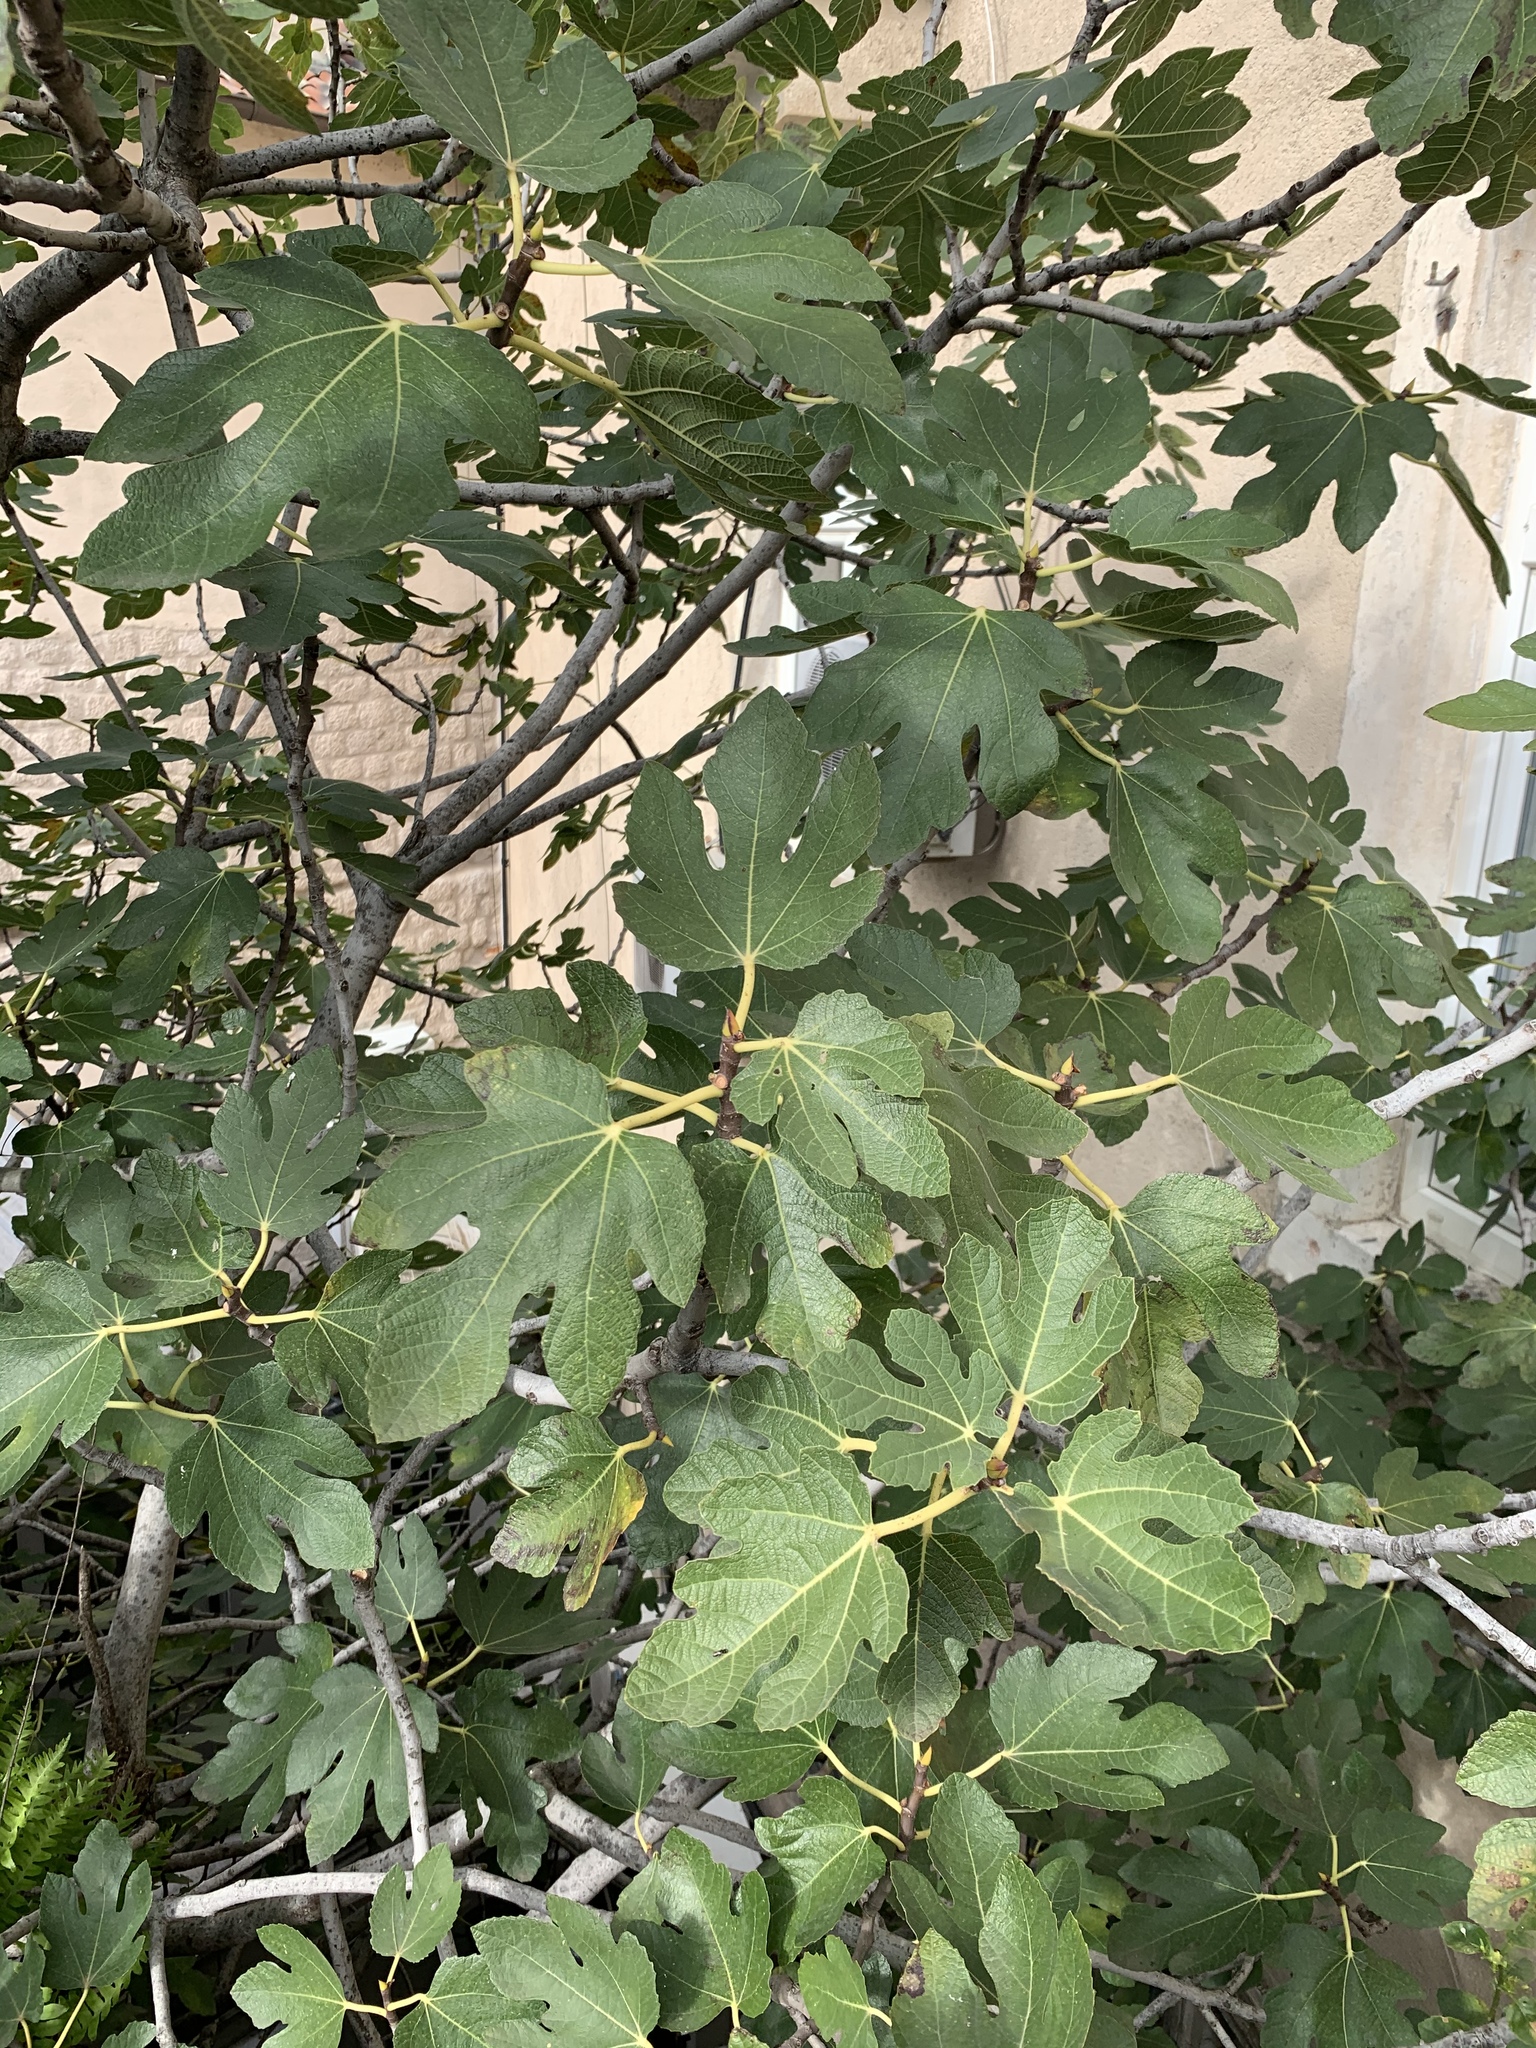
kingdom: Plantae
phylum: Tracheophyta
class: Magnoliopsida
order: Rosales
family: Moraceae
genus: Ficus
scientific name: Ficus carica
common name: Fig
